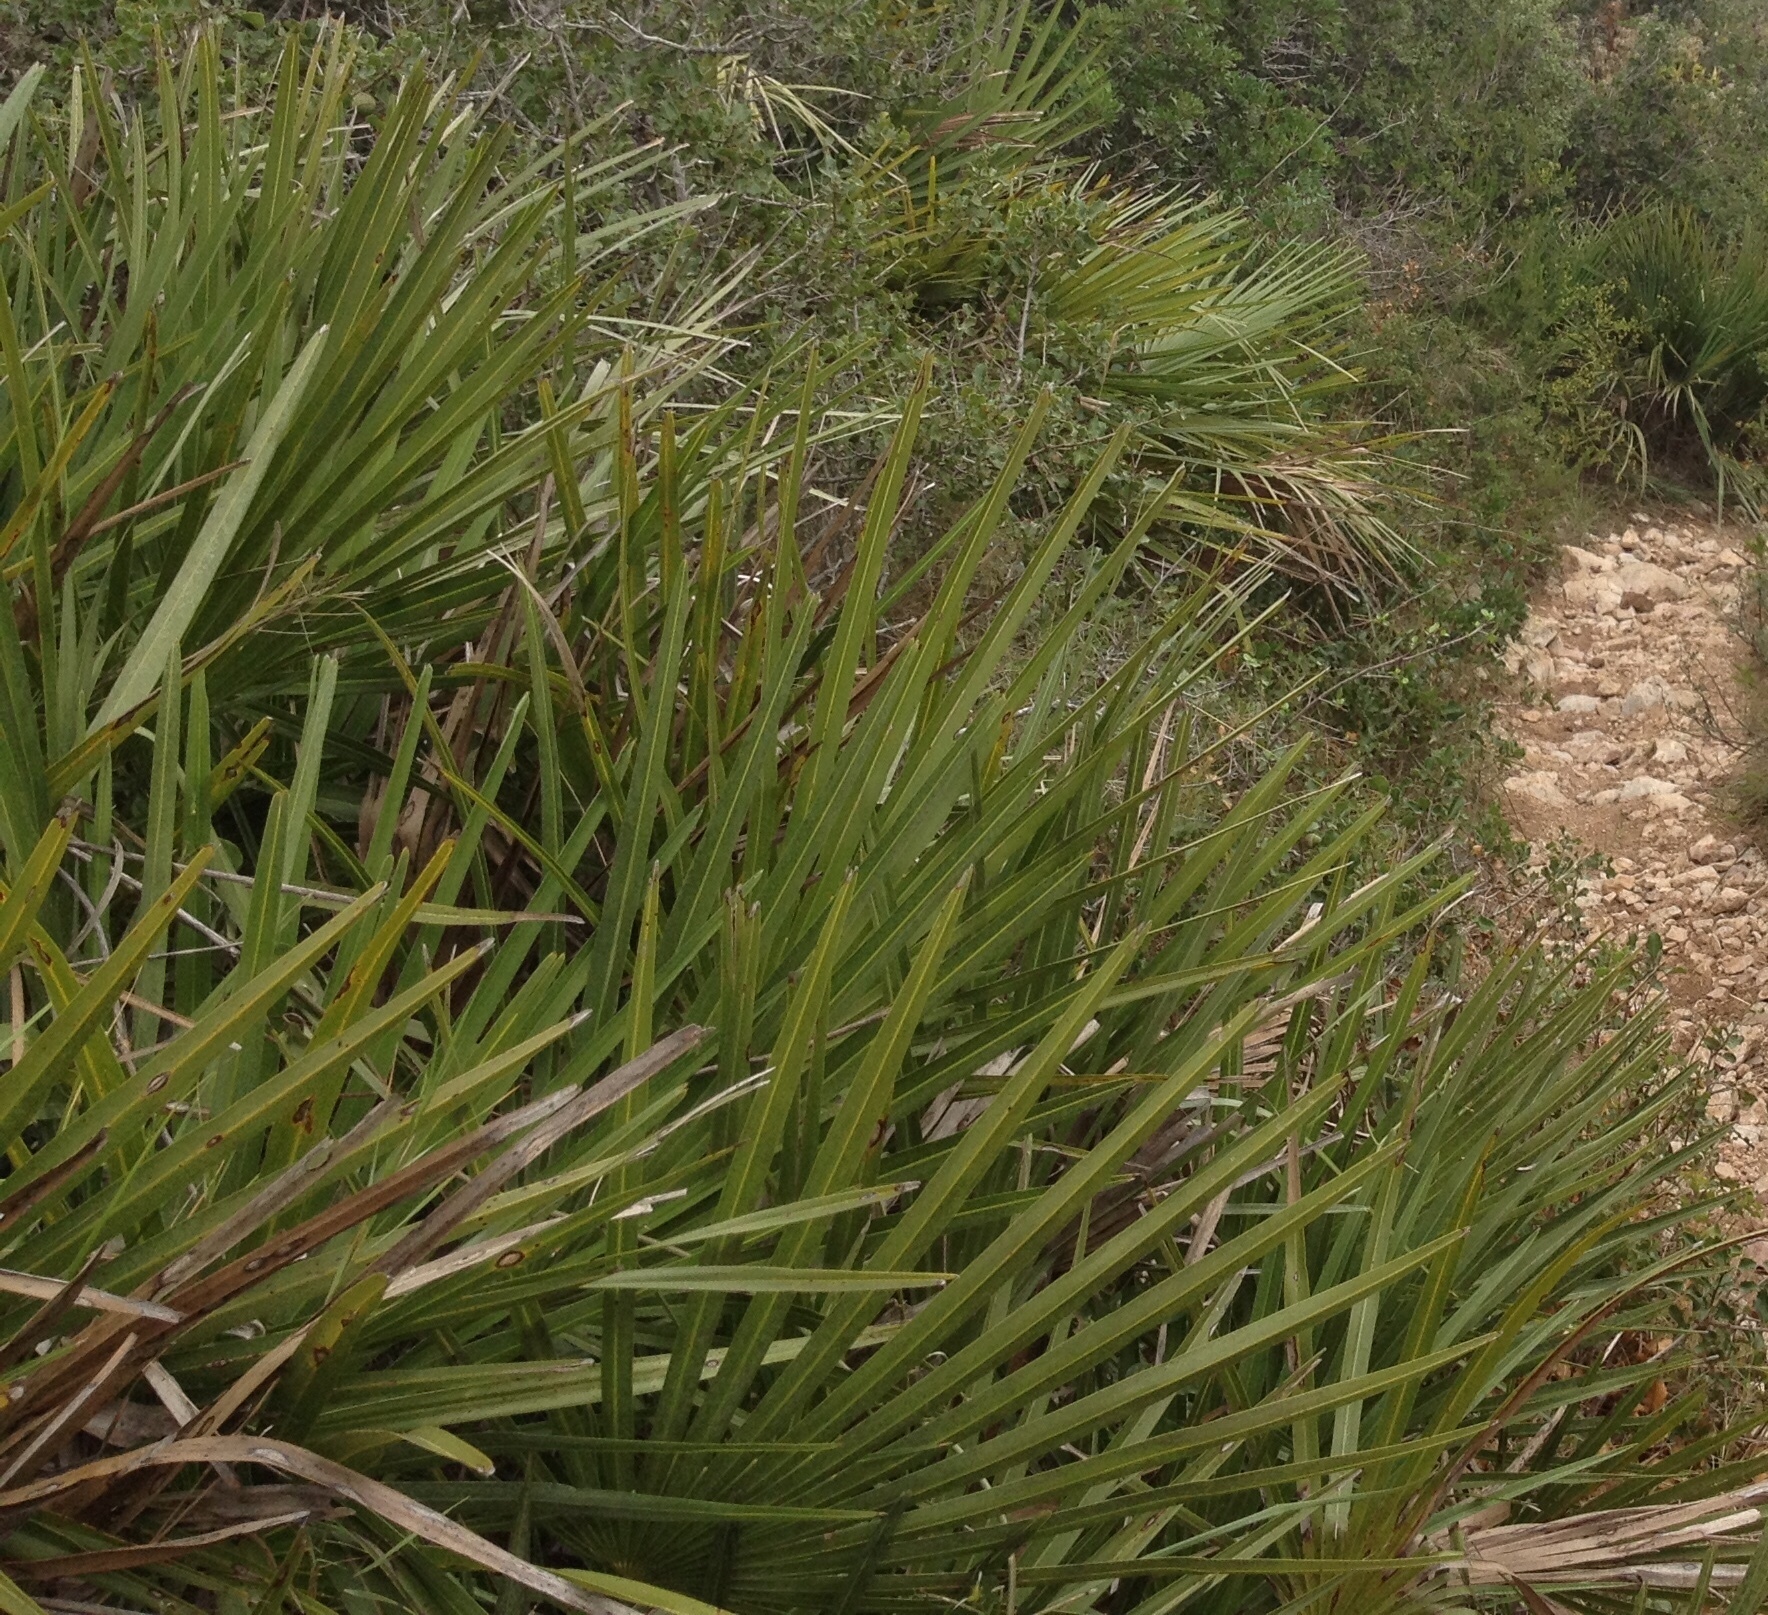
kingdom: Plantae
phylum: Tracheophyta
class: Liliopsida
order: Arecales
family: Arecaceae
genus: Chamaerops
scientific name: Chamaerops humilis
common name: Dwarf fan palm
